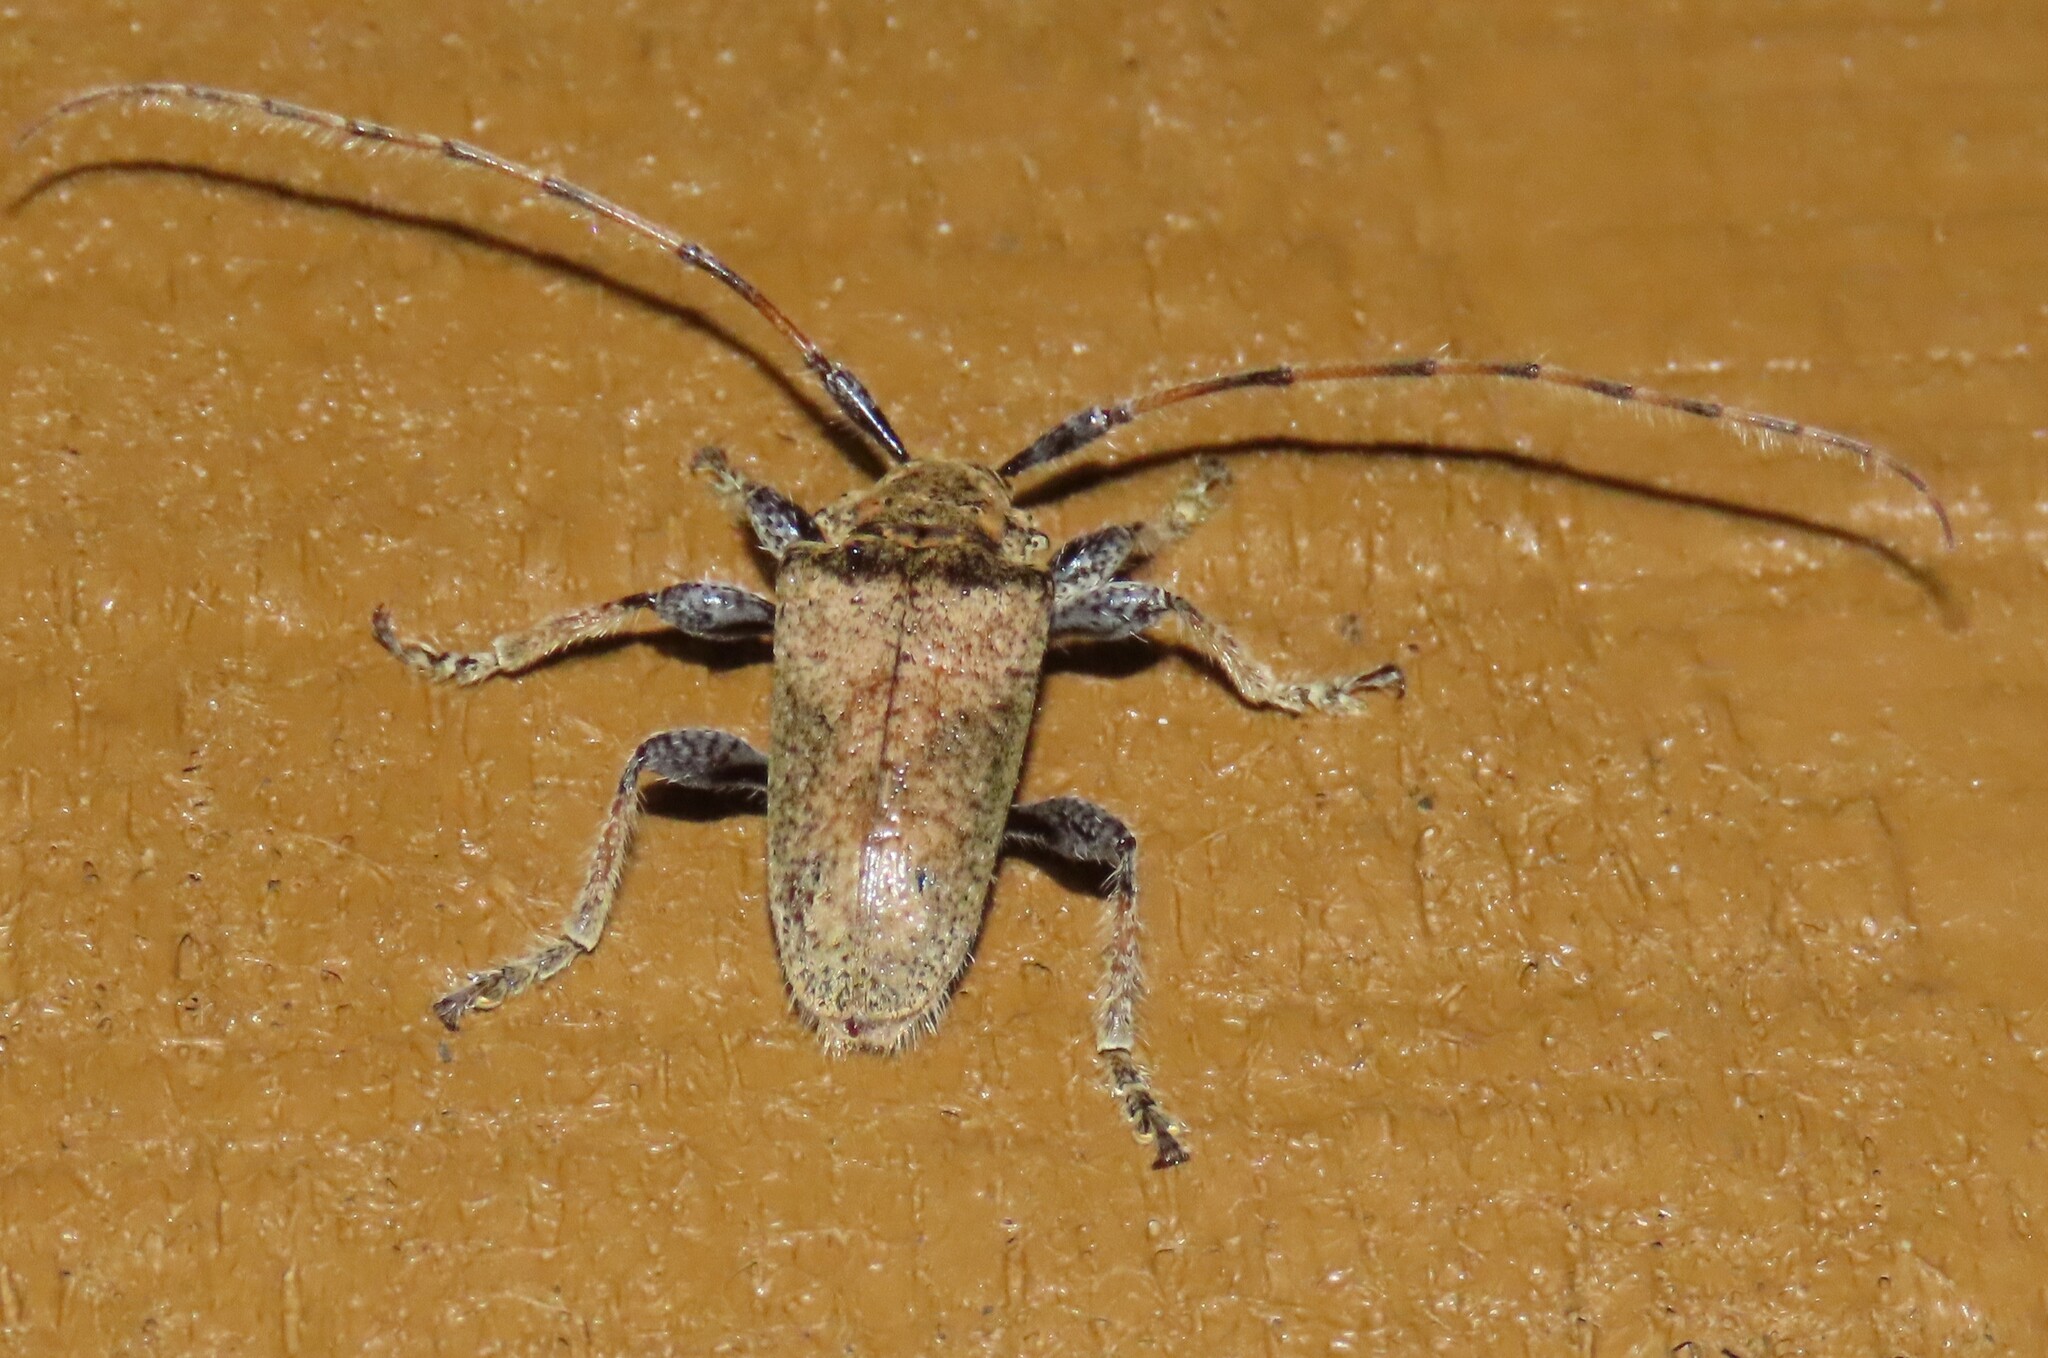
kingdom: Animalia
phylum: Arthropoda
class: Insecta
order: Coleoptera
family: Cerambycidae
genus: Polyacanthia
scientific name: Polyacanthia flavipes
